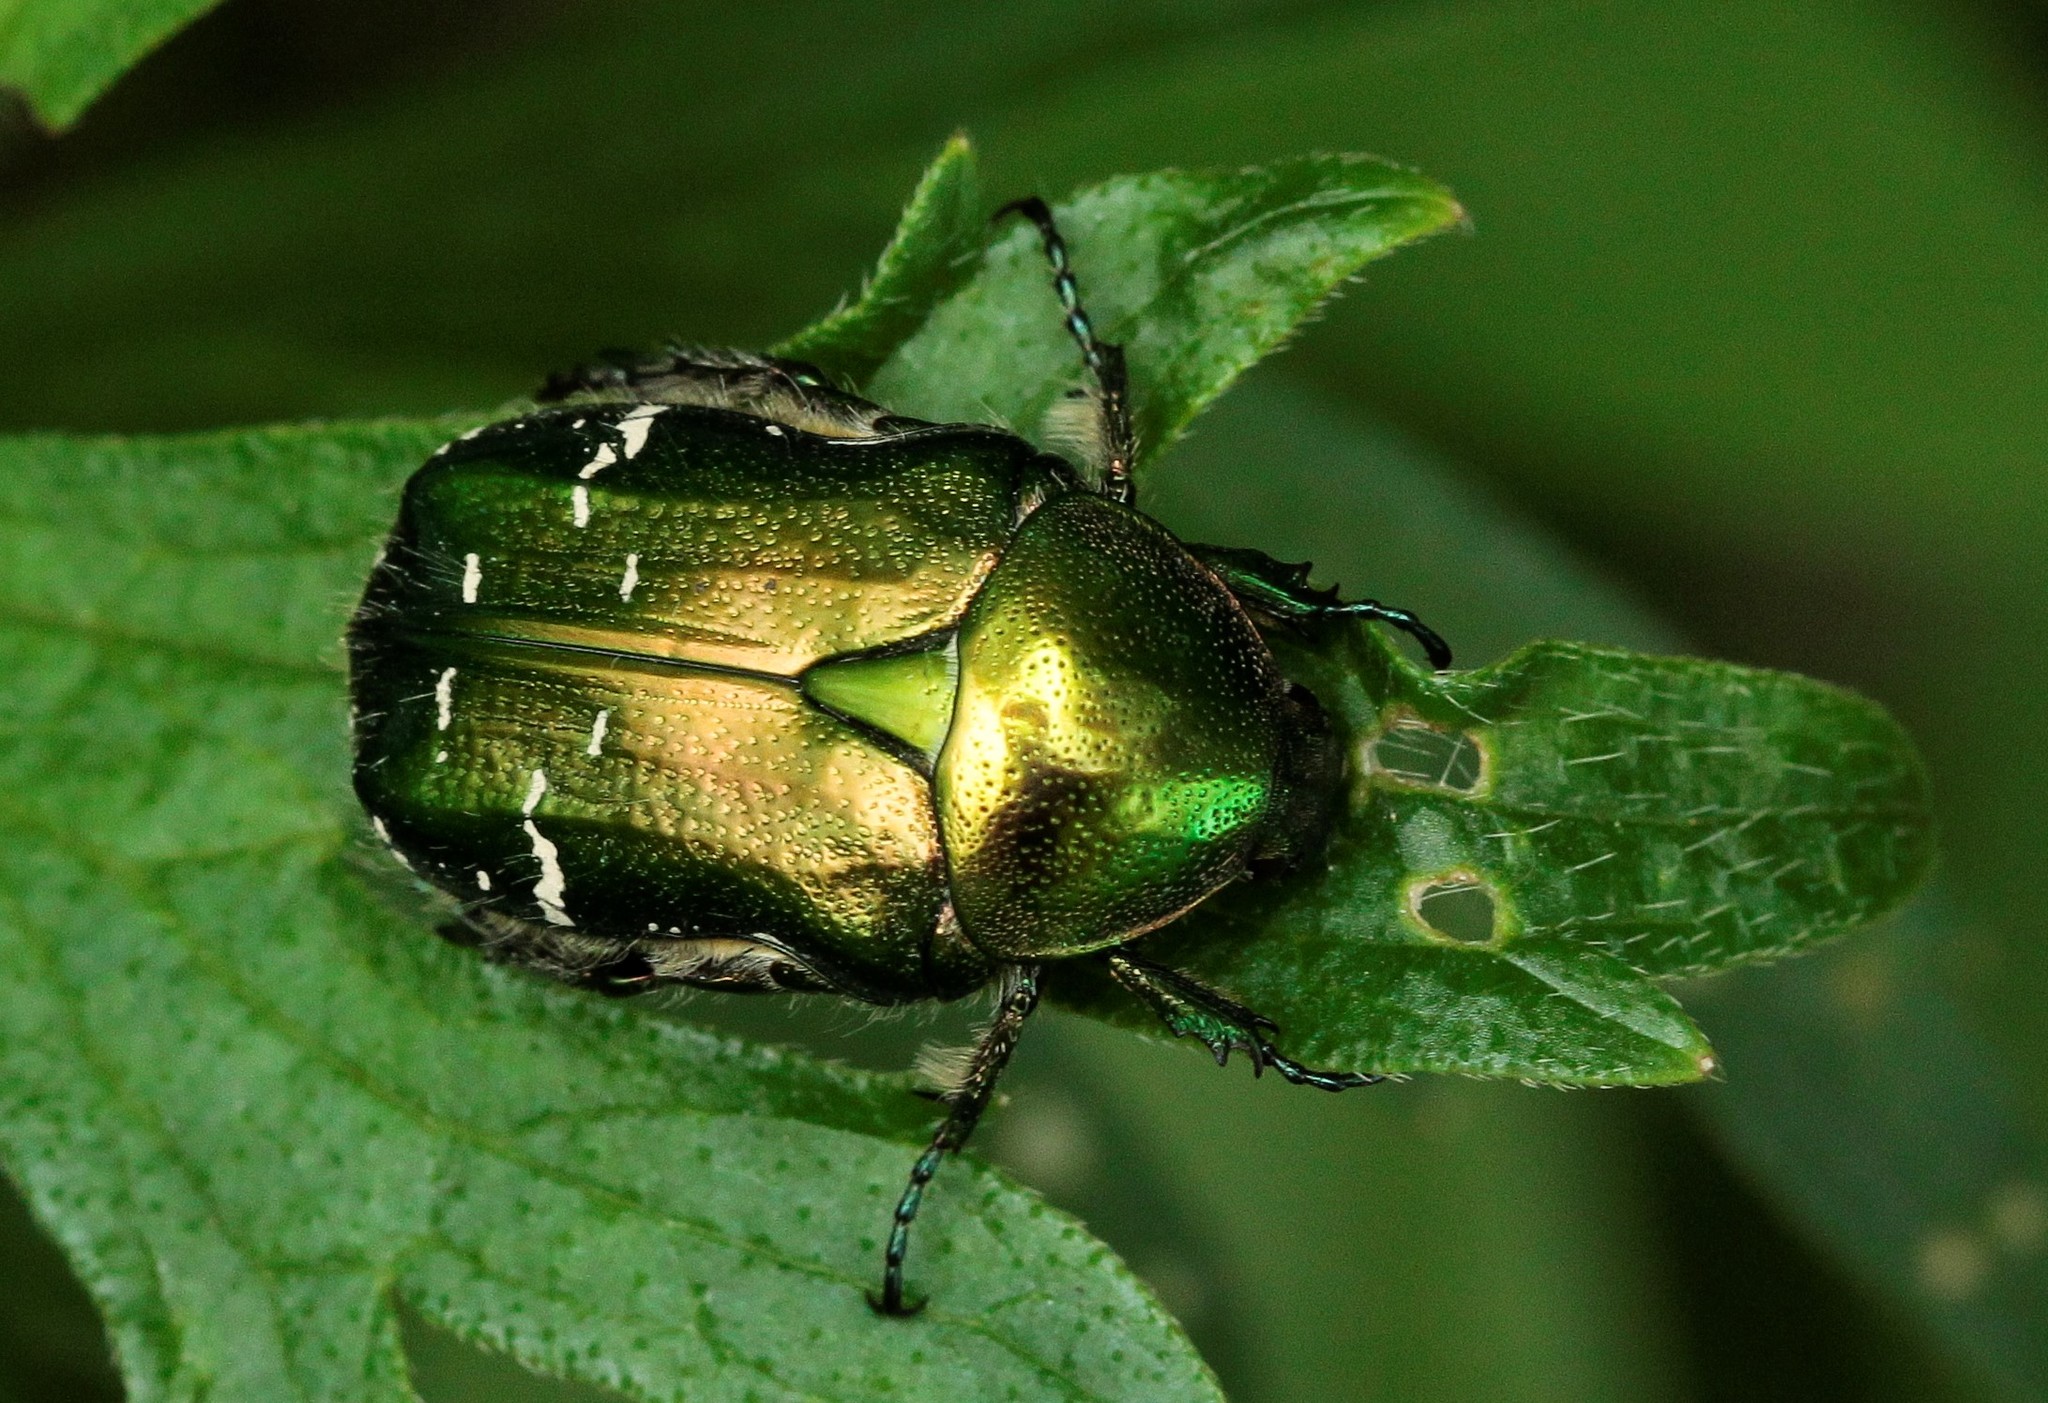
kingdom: Animalia
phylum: Arthropoda
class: Insecta
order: Coleoptera
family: Scarabaeidae
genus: Cetonia
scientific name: Cetonia aurata
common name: Rose chafer
